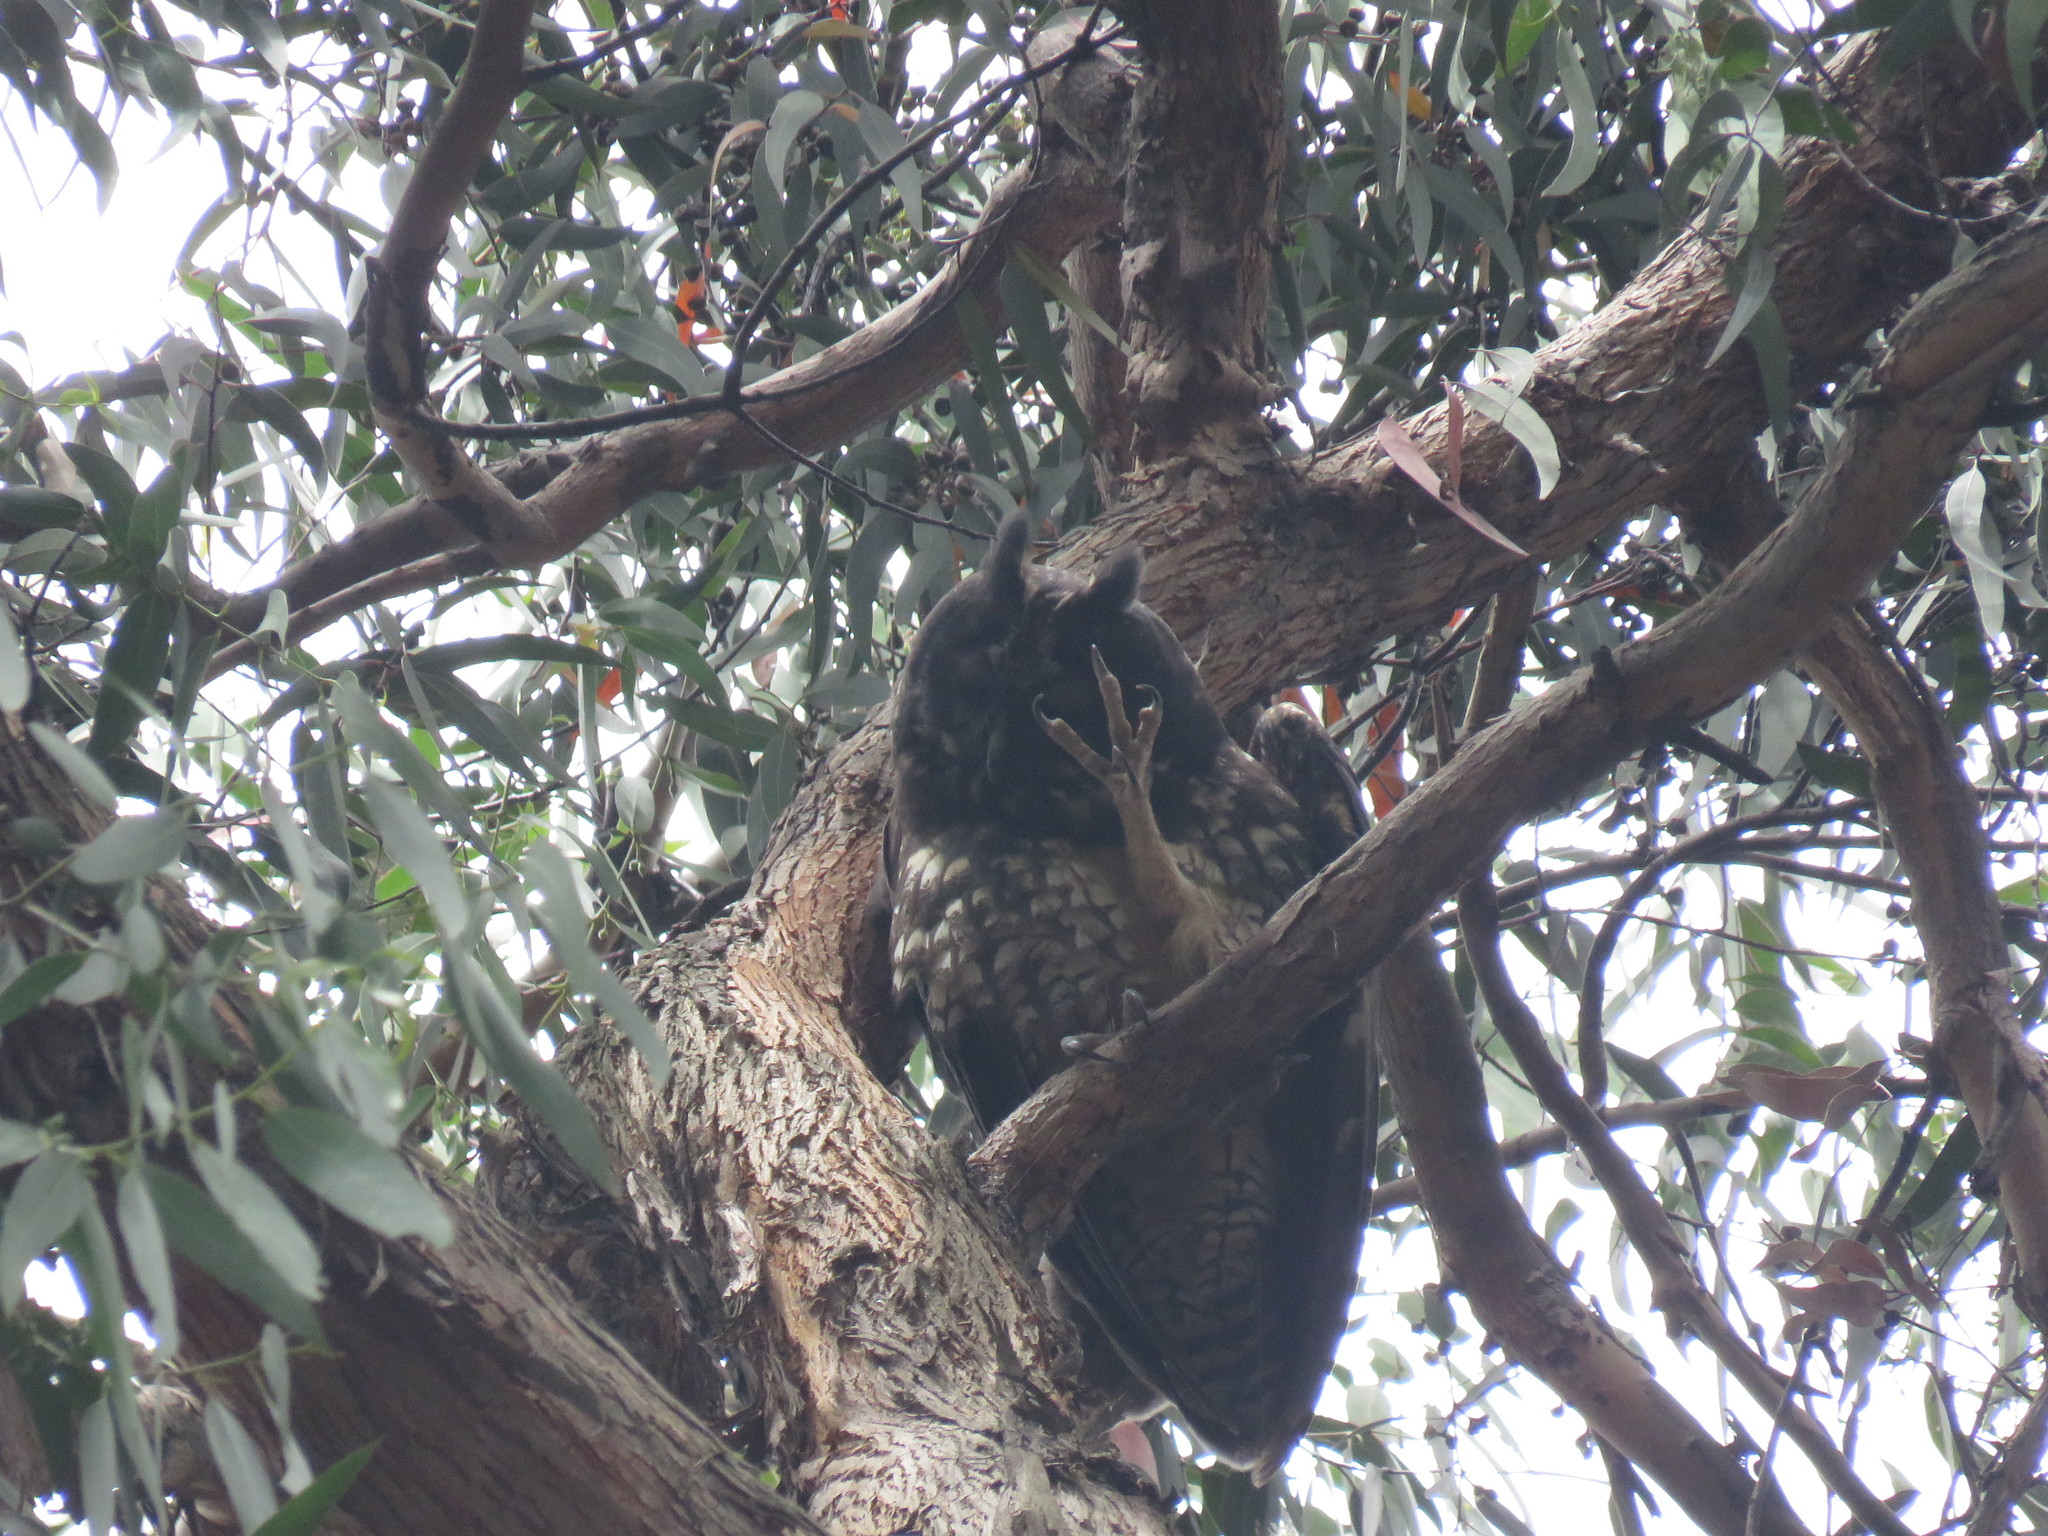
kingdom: Animalia
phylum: Chordata
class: Aves
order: Strigiformes
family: Strigidae
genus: Asio
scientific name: Asio stygius
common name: Stygian owl
